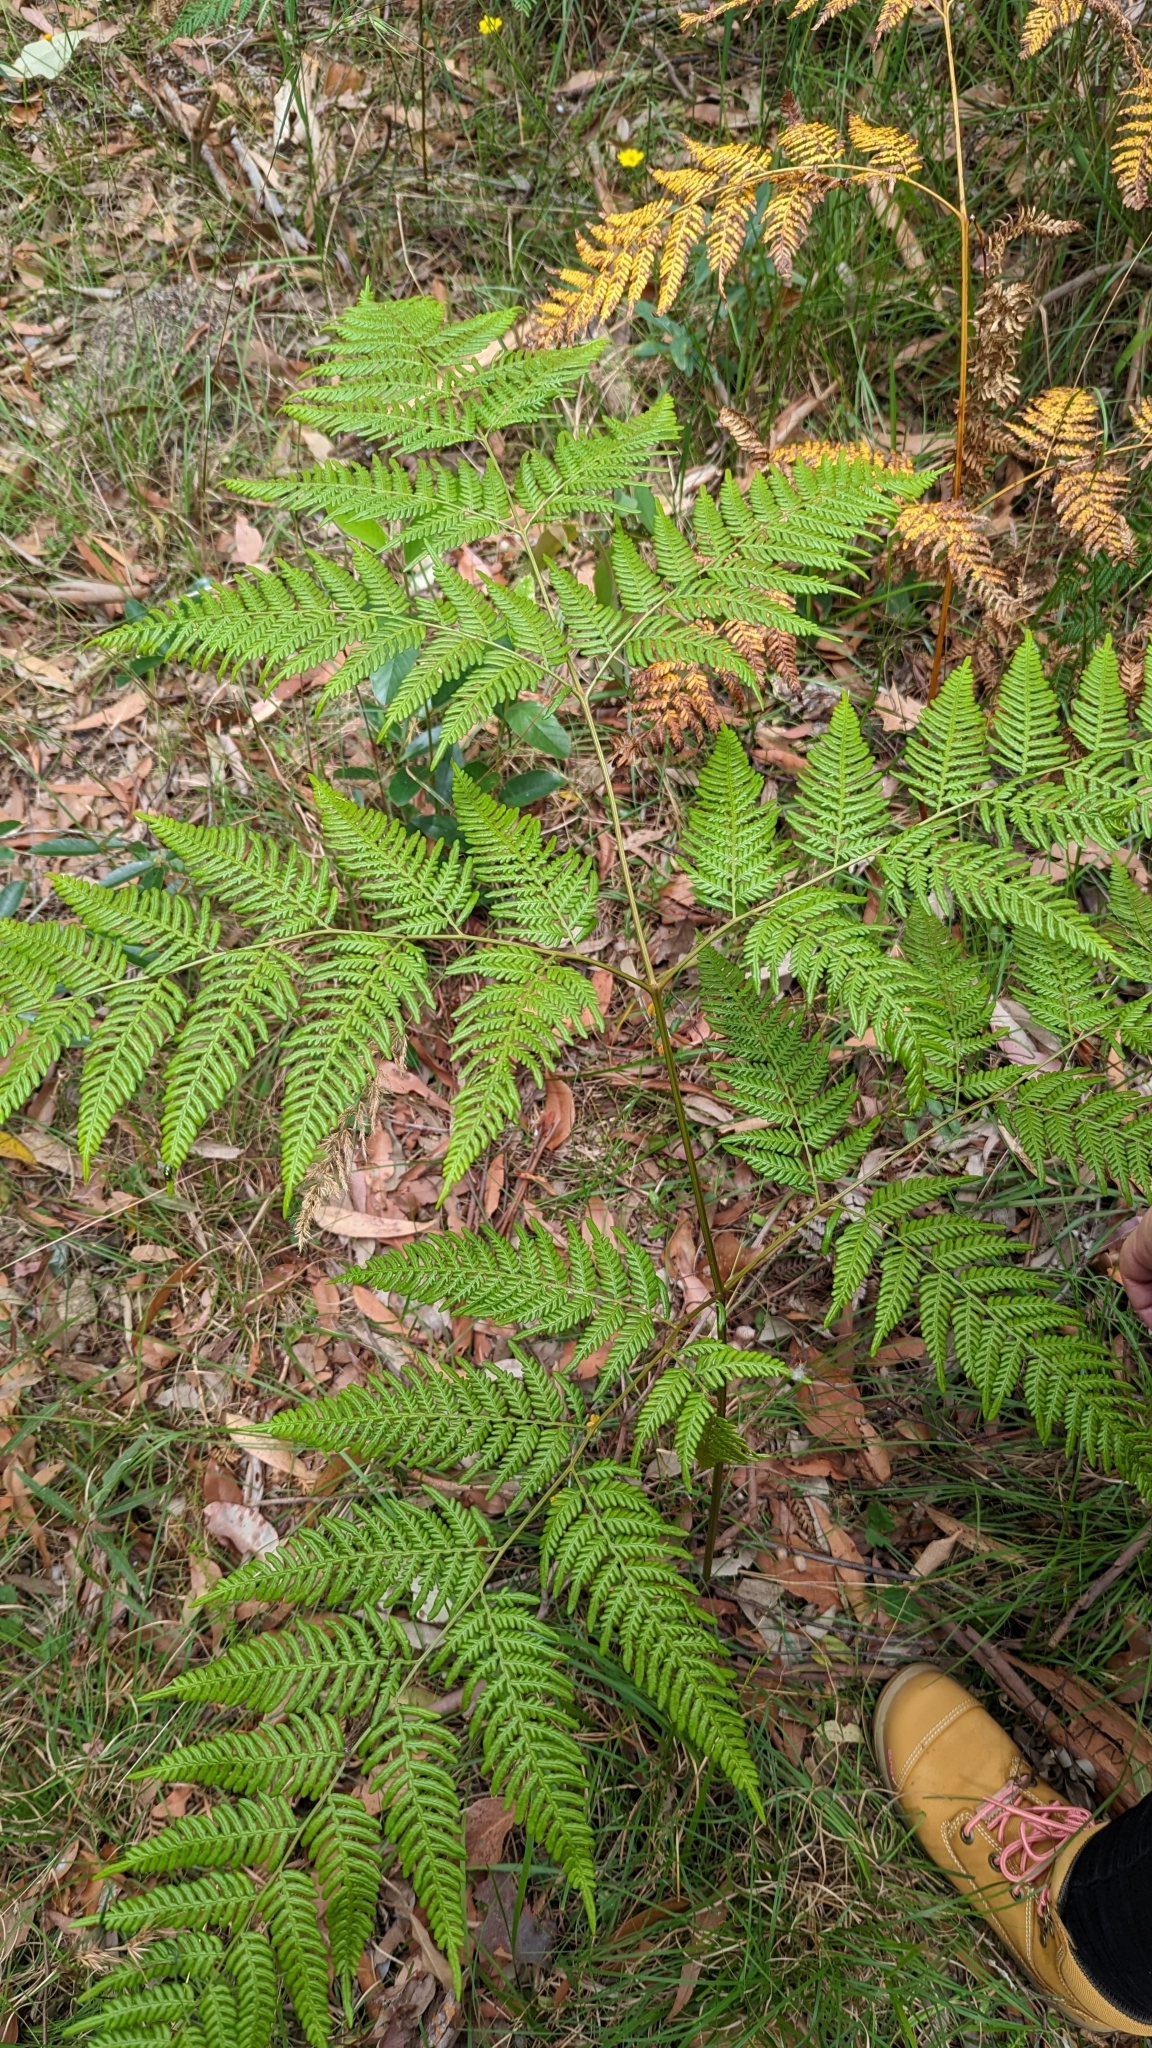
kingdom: Plantae
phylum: Tracheophyta
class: Polypodiopsida
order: Polypodiales
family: Dennstaedtiaceae
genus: Pteridium
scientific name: Pteridium esculentum
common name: Bracken fern
